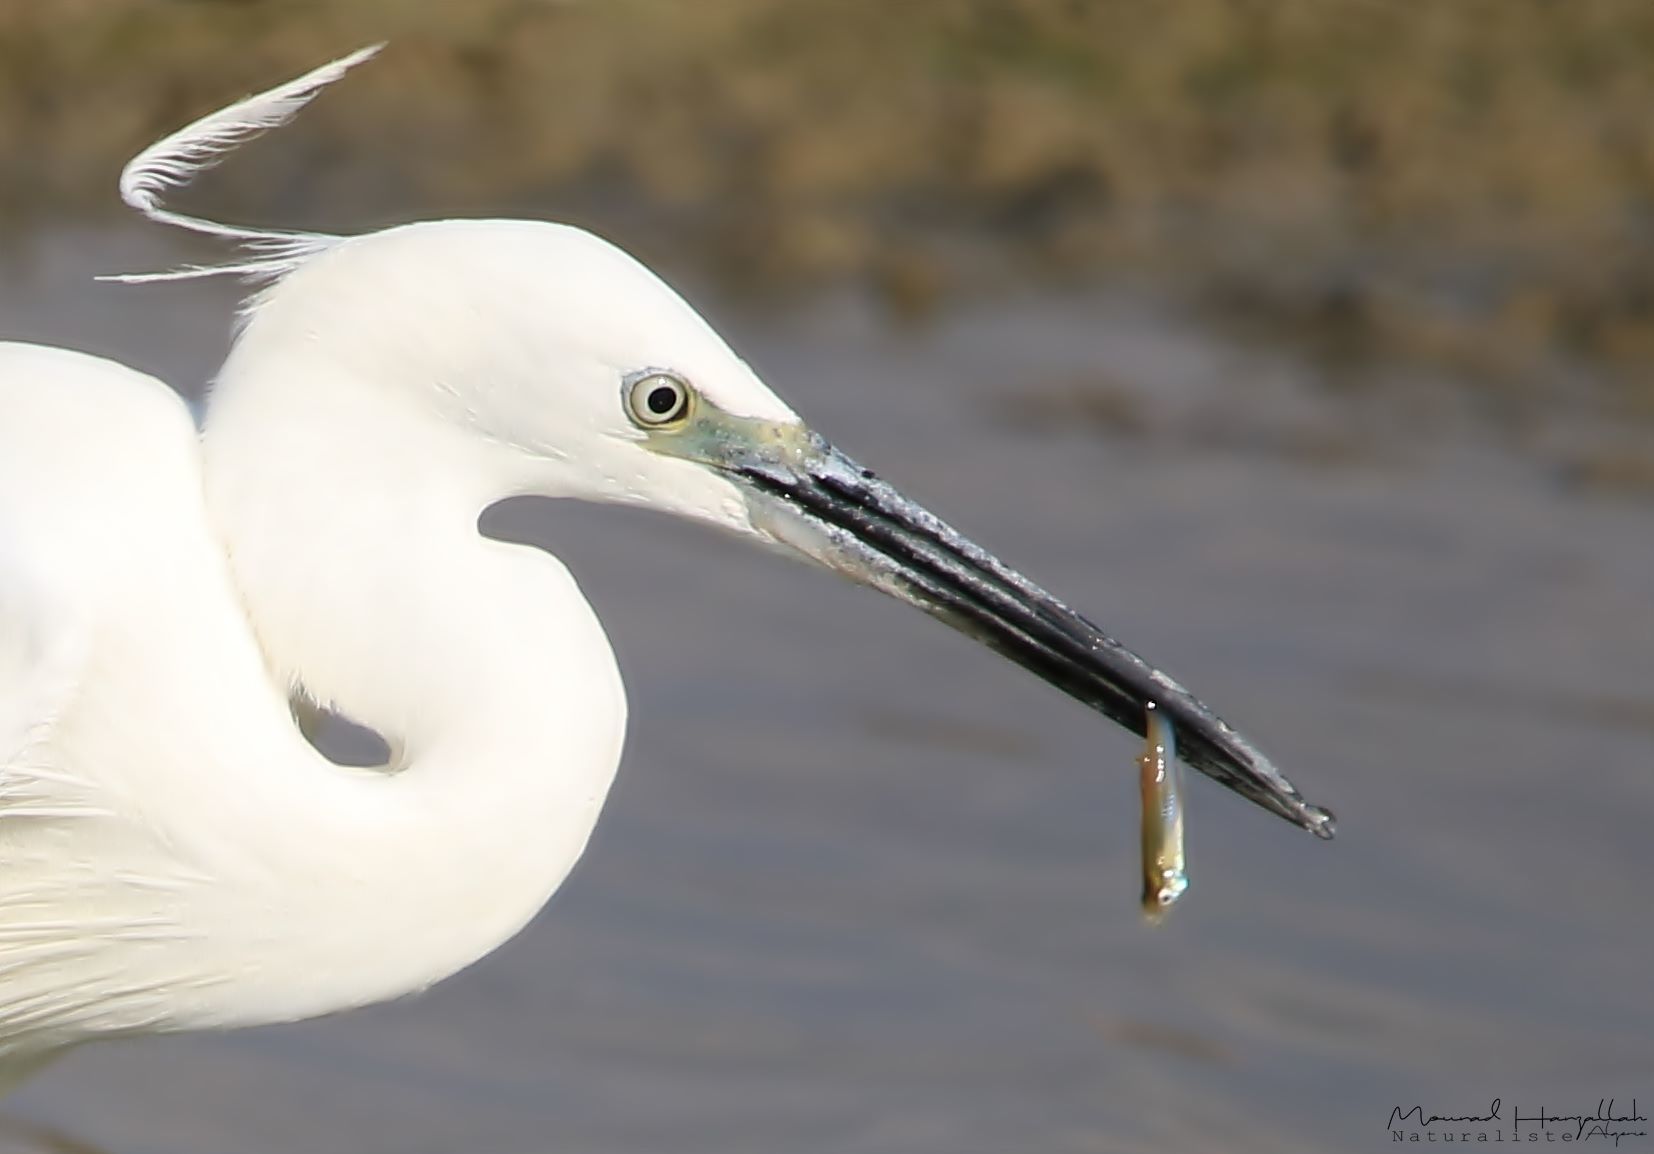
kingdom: Animalia
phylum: Chordata
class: Aves
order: Pelecaniformes
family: Ardeidae
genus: Egretta
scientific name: Egretta garzetta
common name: Little egret
